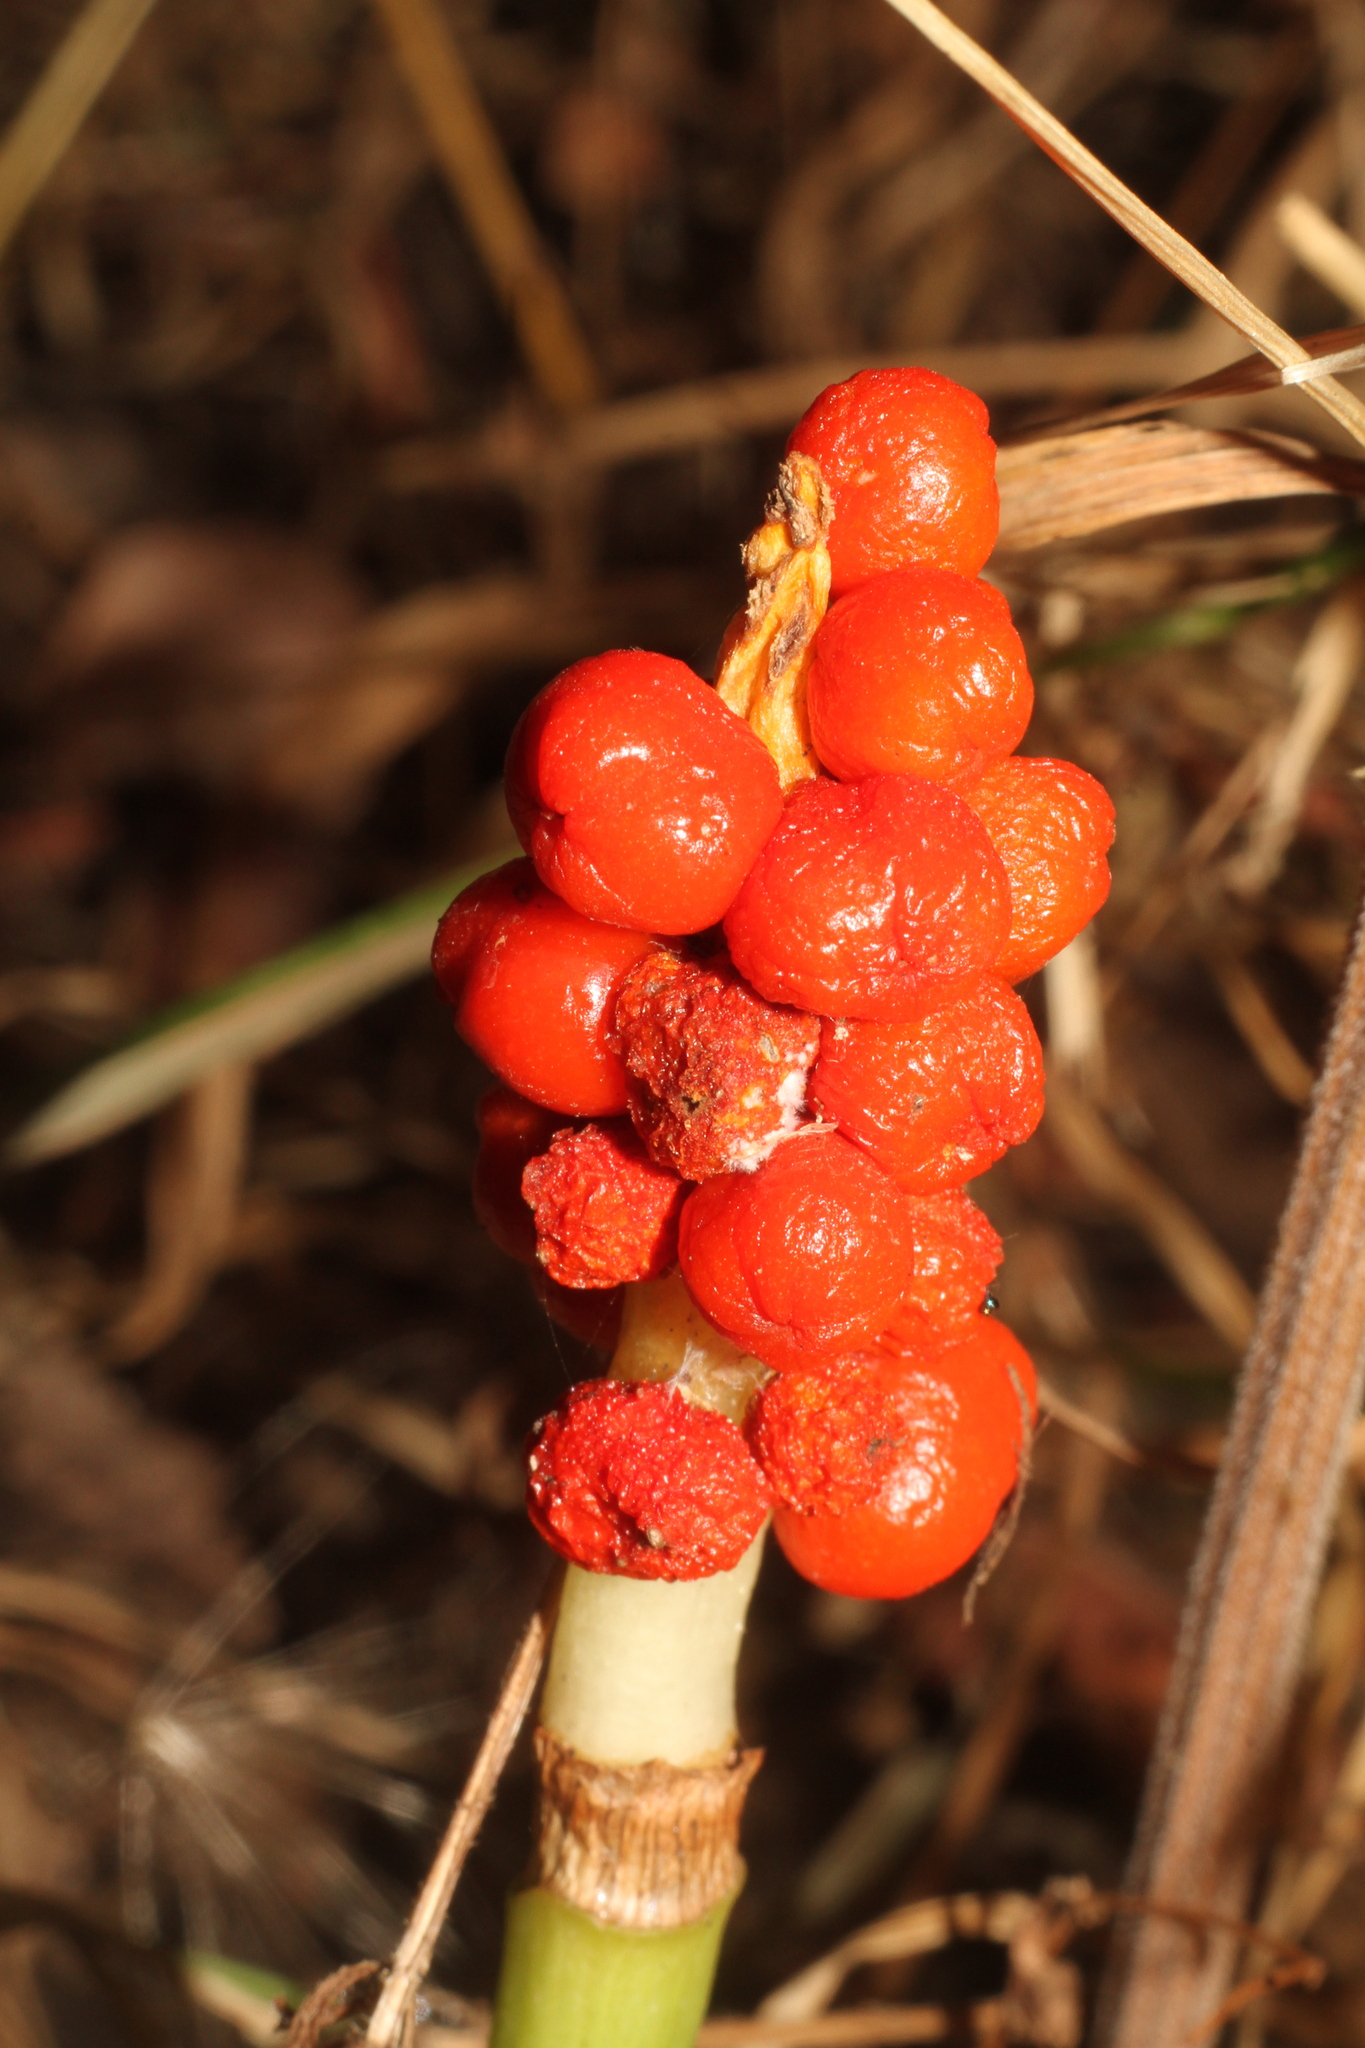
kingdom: Plantae
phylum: Tracheophyta
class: Liliopsida
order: Alismatales
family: Araceae
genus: Arum
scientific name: Arum maculatum
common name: Lords-and-ladies
